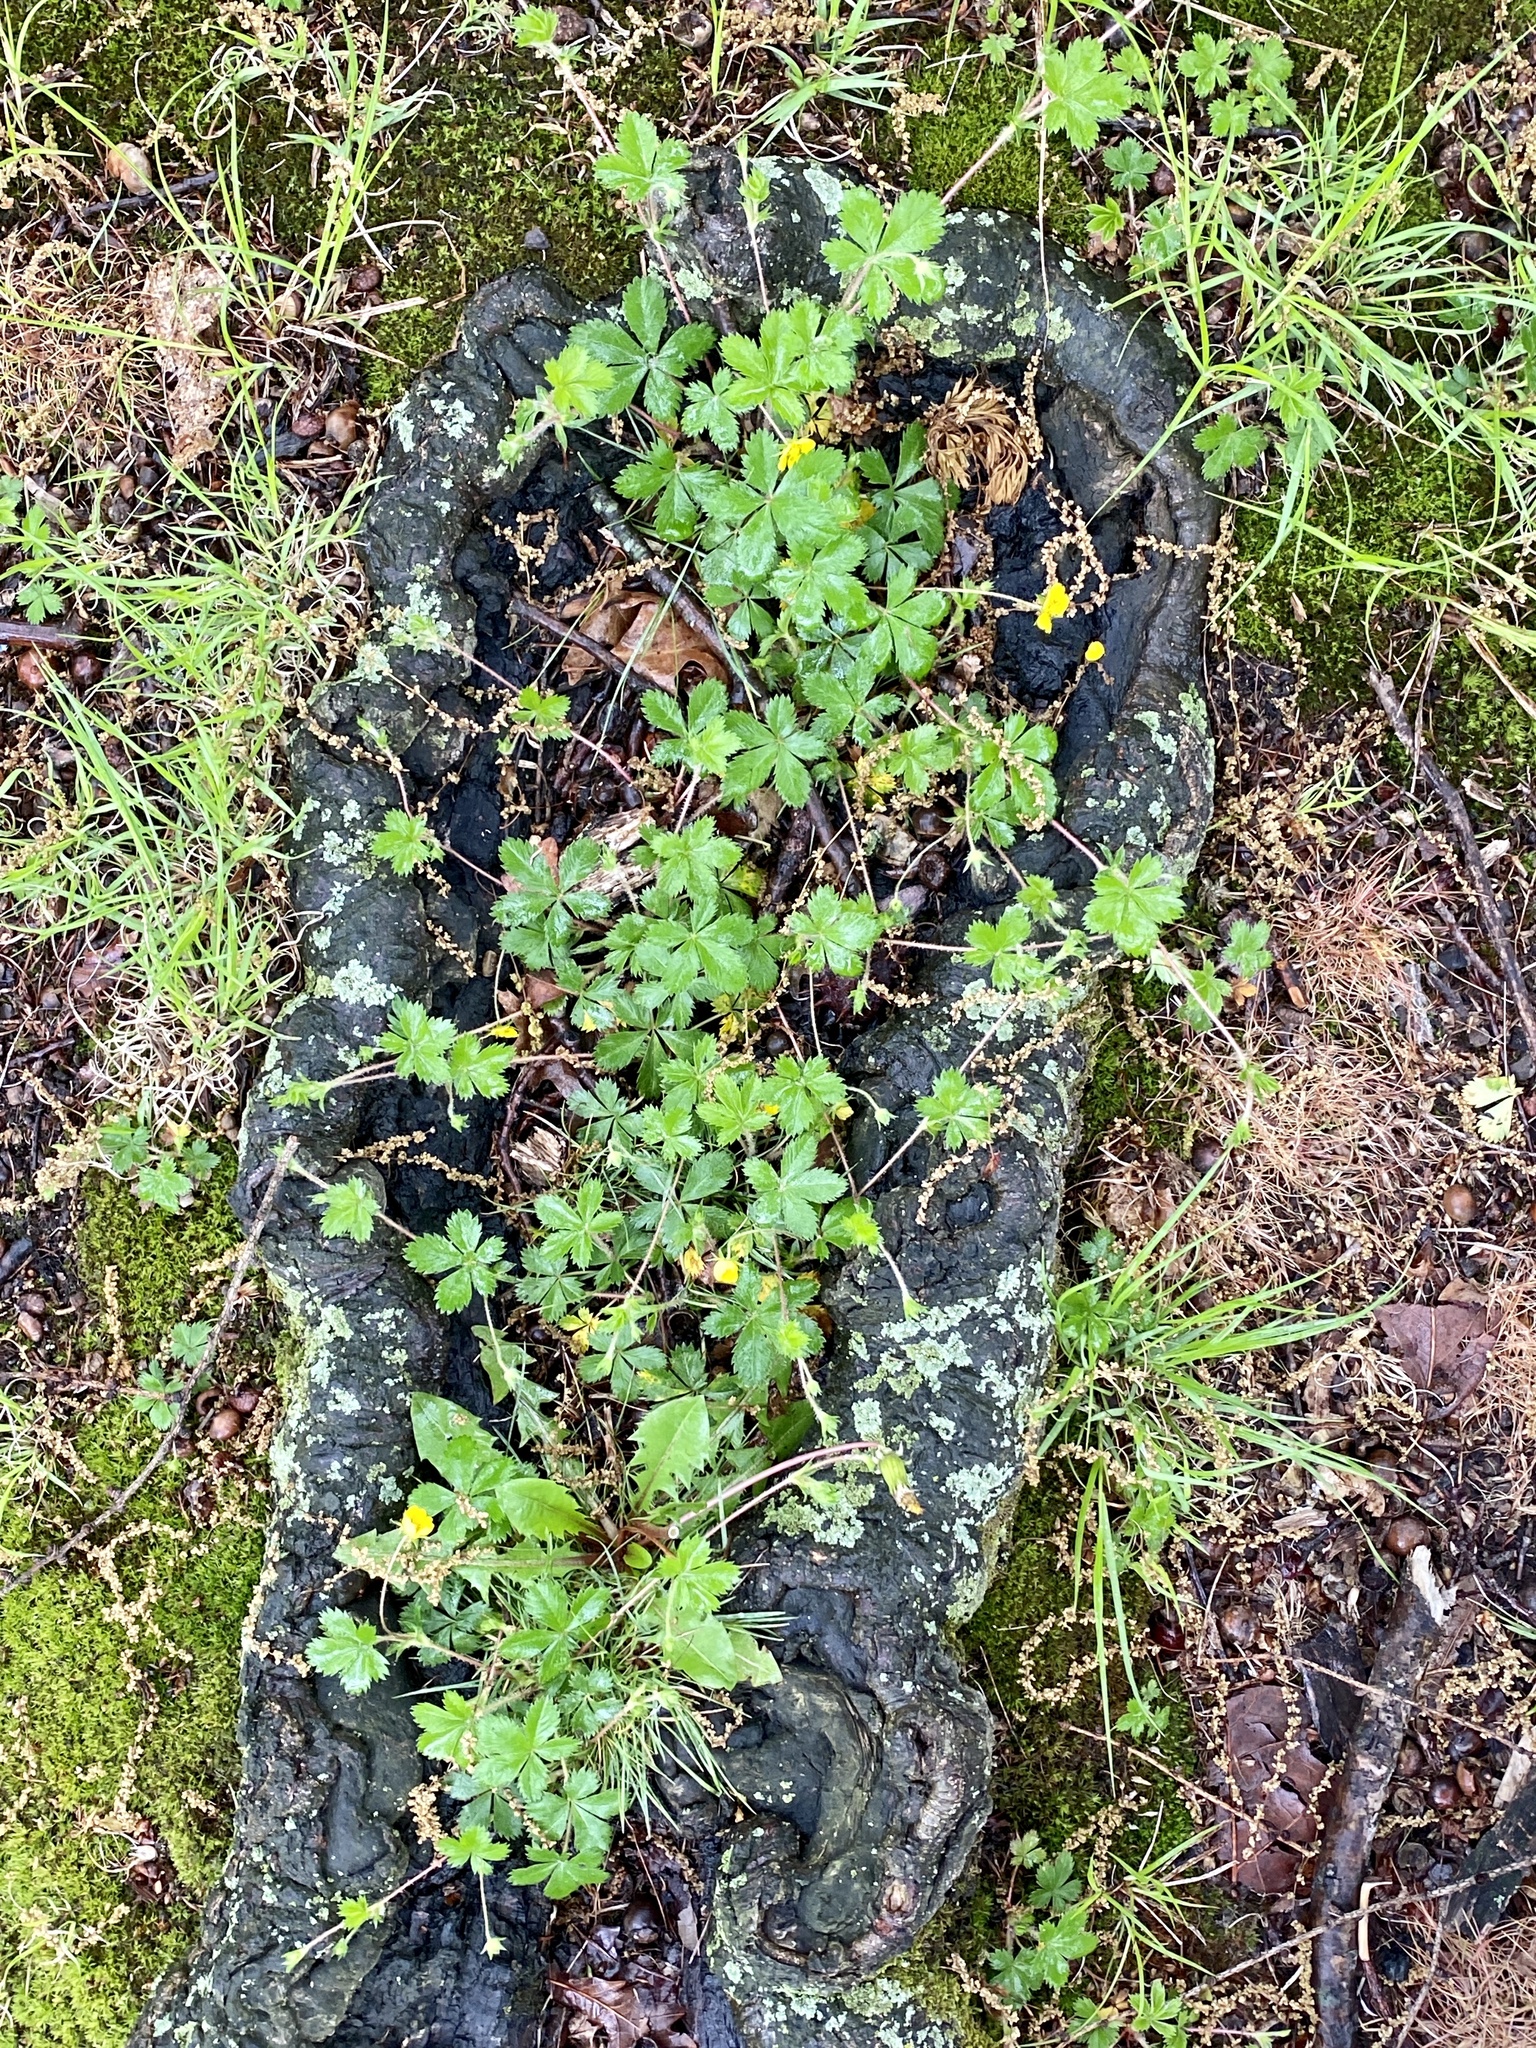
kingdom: Plantae
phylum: Tracheophyta
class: Magnoliopsida
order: Rosales
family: Rosaceae
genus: Potentilla
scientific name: Potentilla canadensis
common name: Canada cinquefoil
